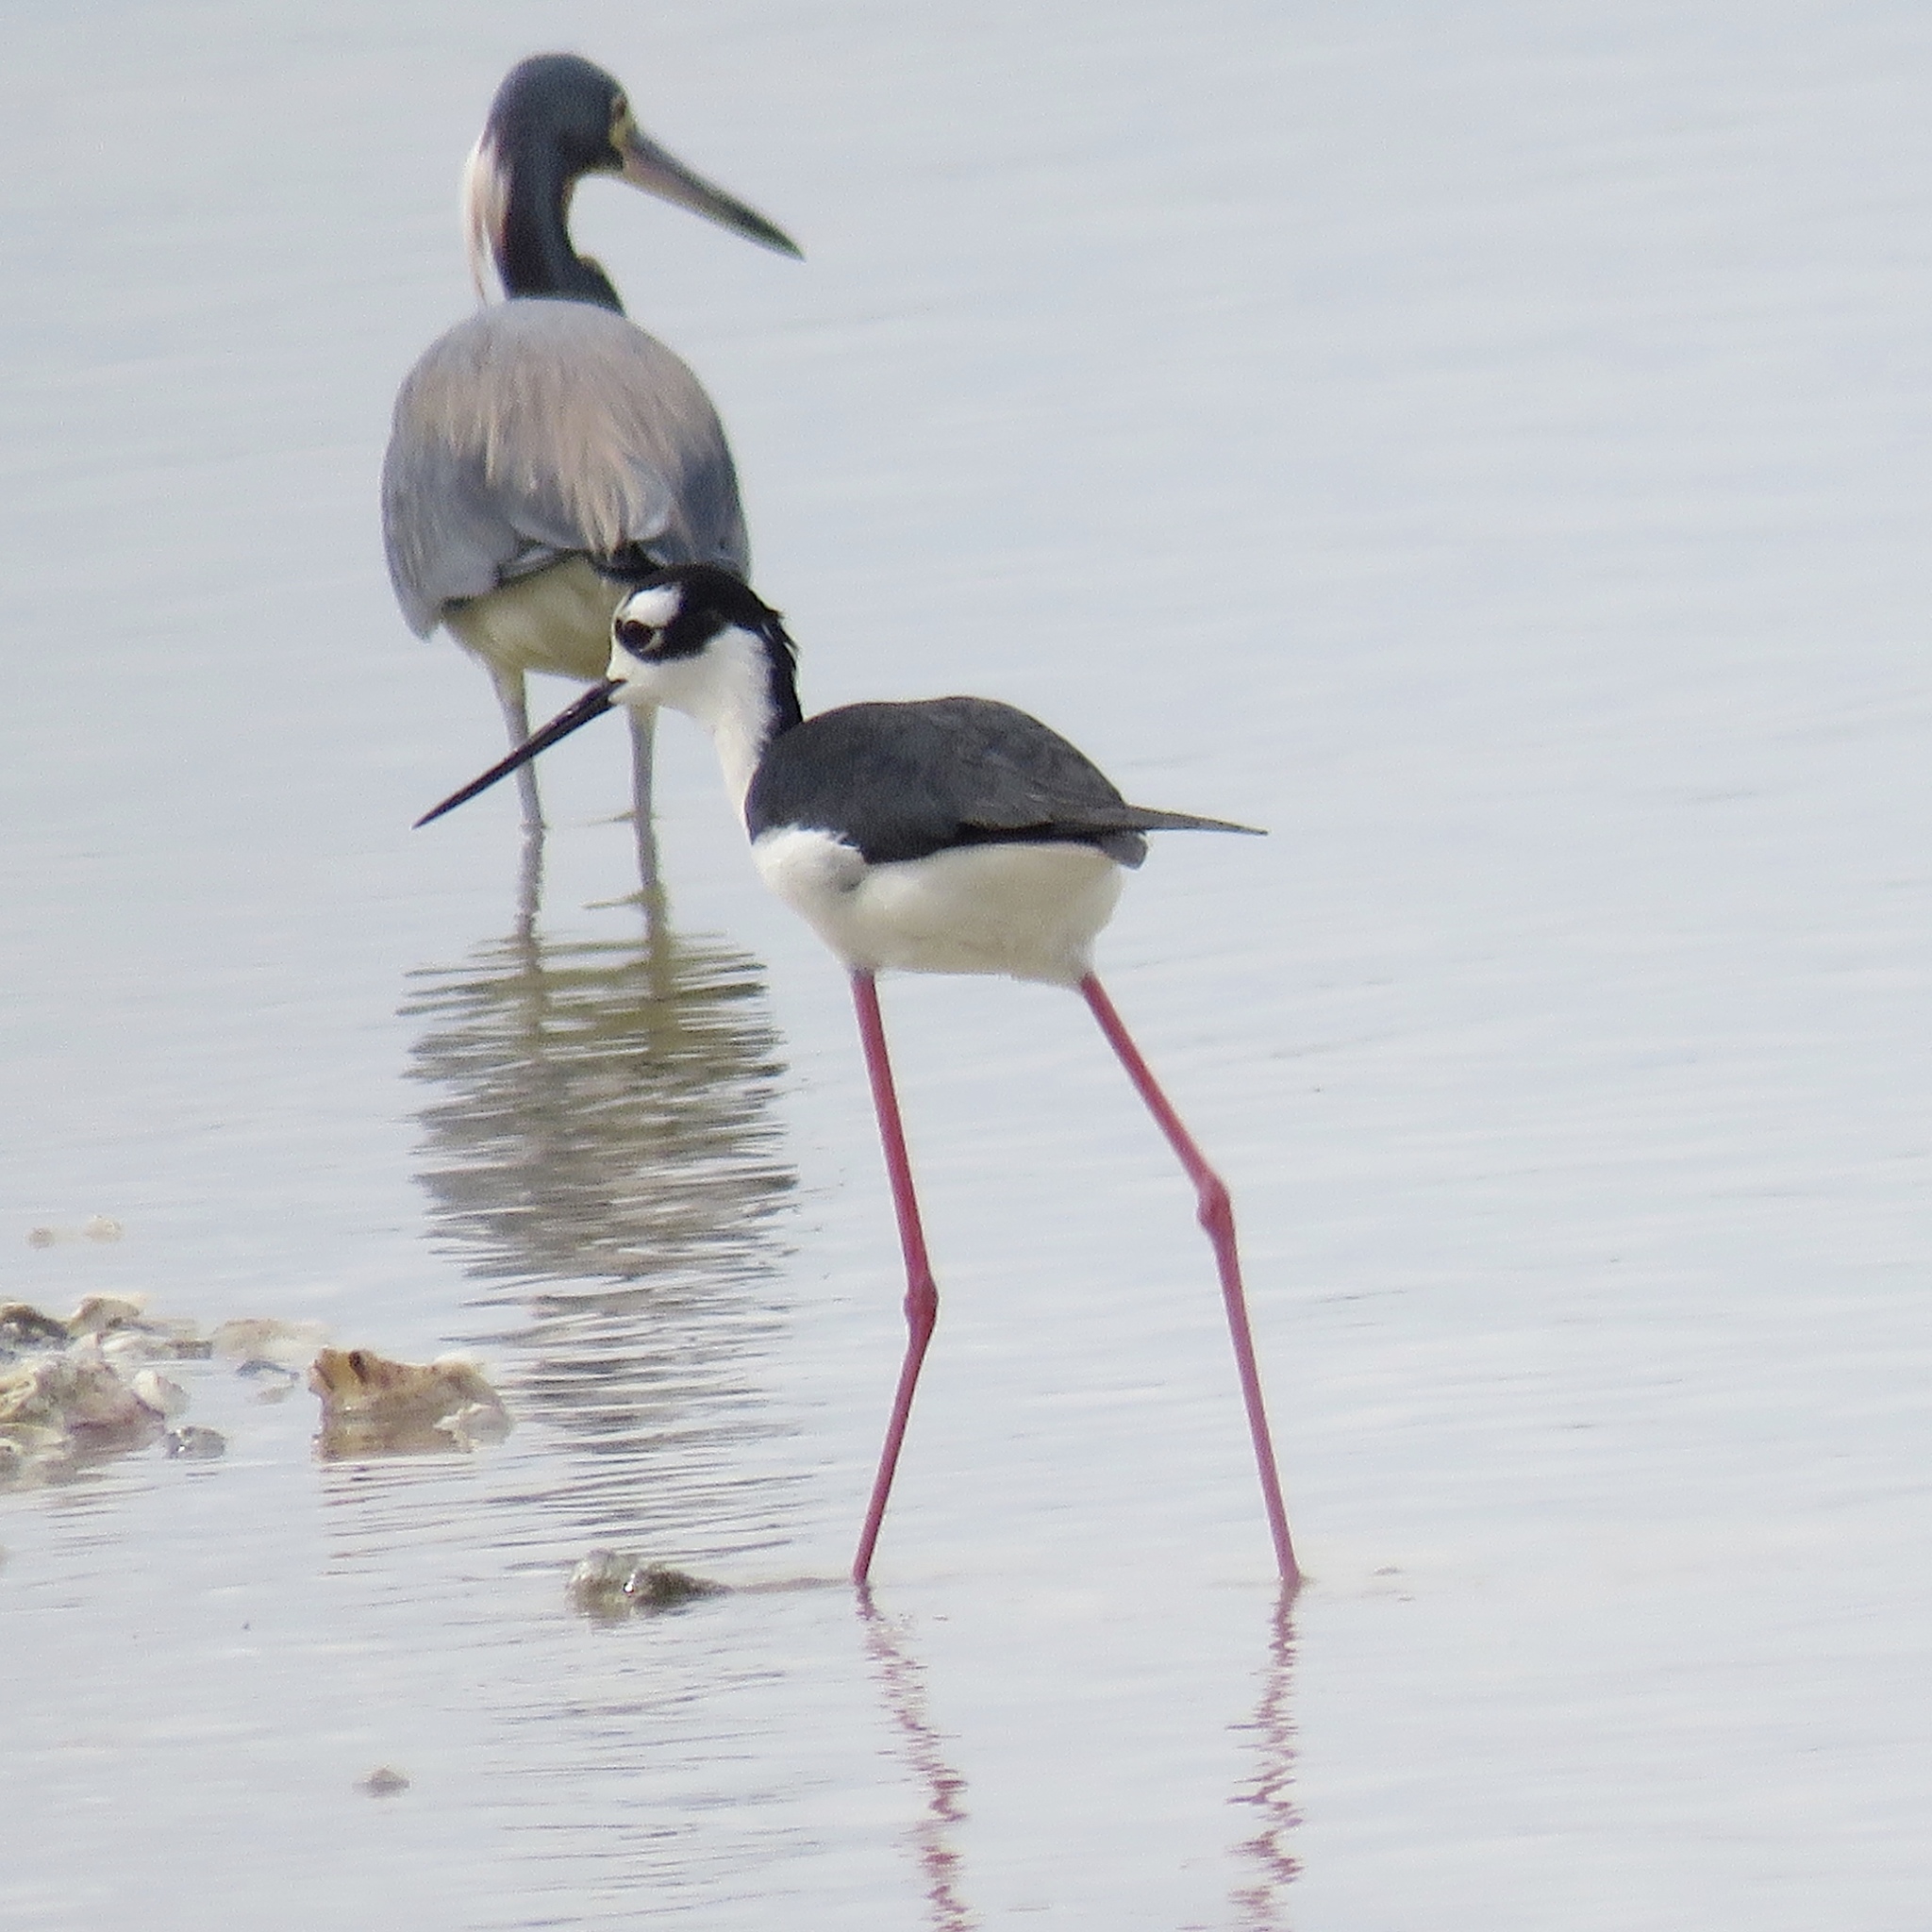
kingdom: Animalia
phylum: Chordata
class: Aves
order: Charadriiformes
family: Recurvirostridae
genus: Himantopus
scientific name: Himantopus mexicanus
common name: Black-necked stilt
